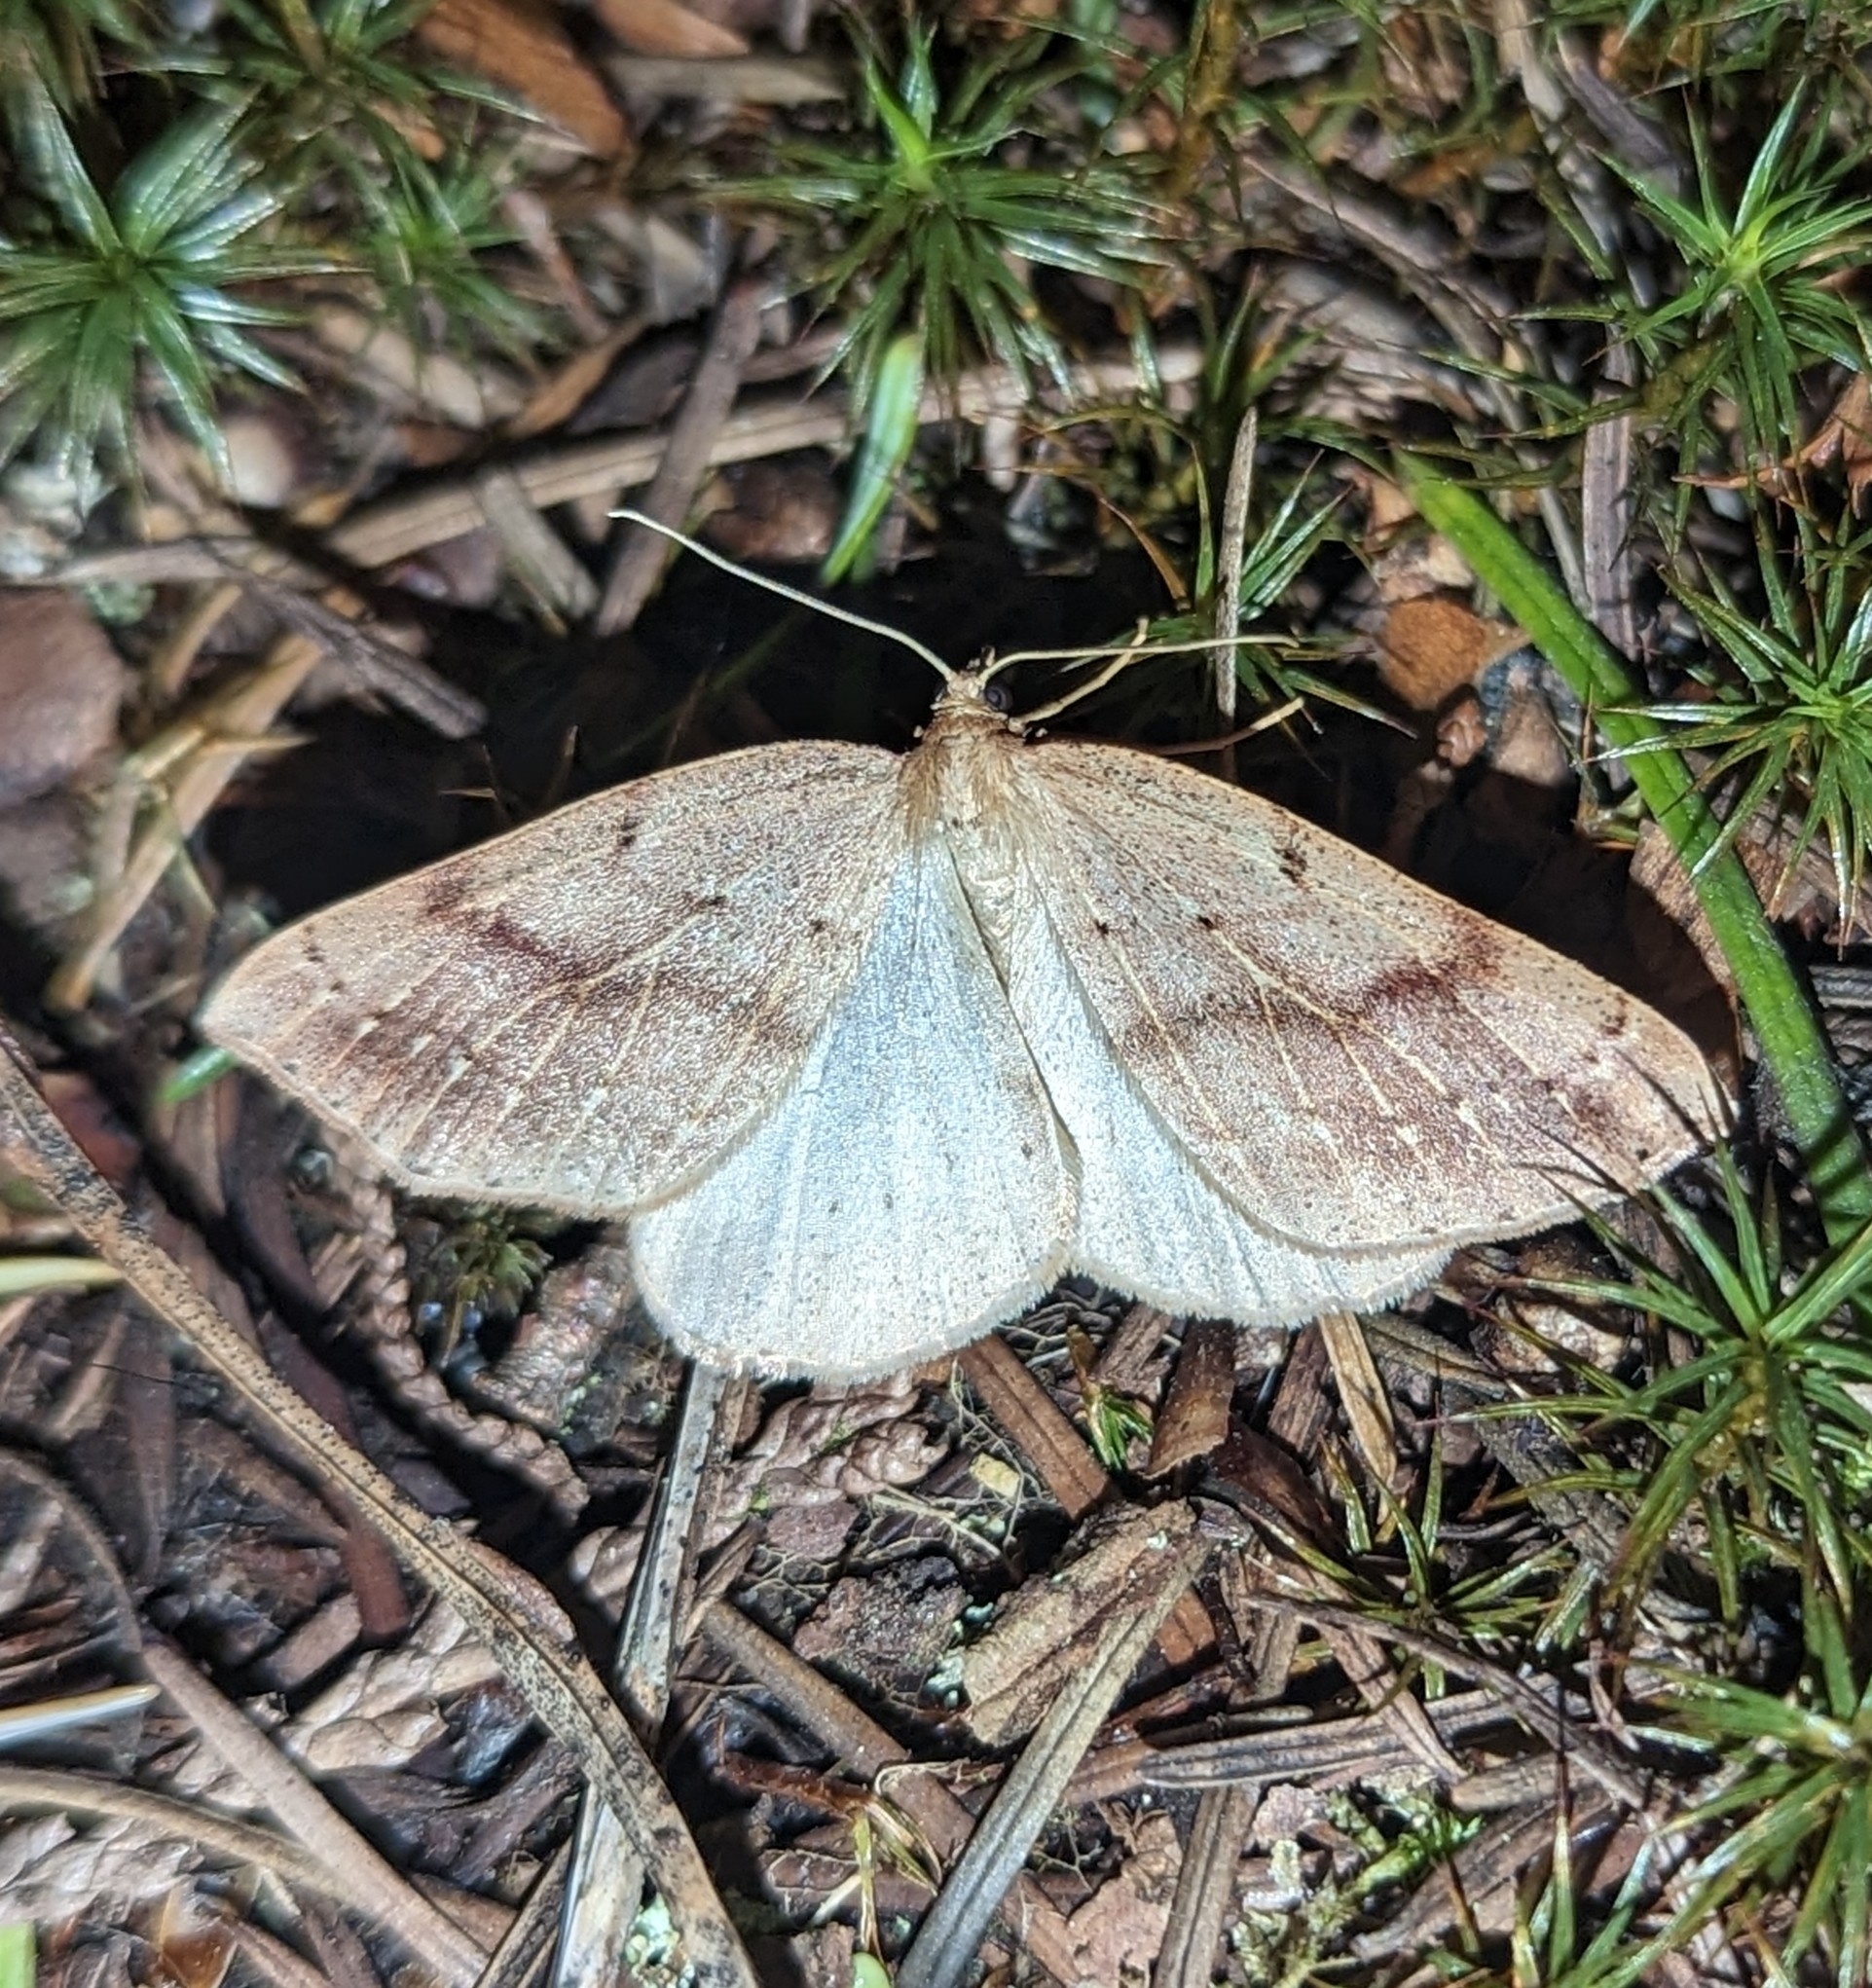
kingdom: Animalia
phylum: Arthropoda
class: Insecta
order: Lepidoptera
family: Geometridae
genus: Thallophaga
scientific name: Thallophaga hyperborea
